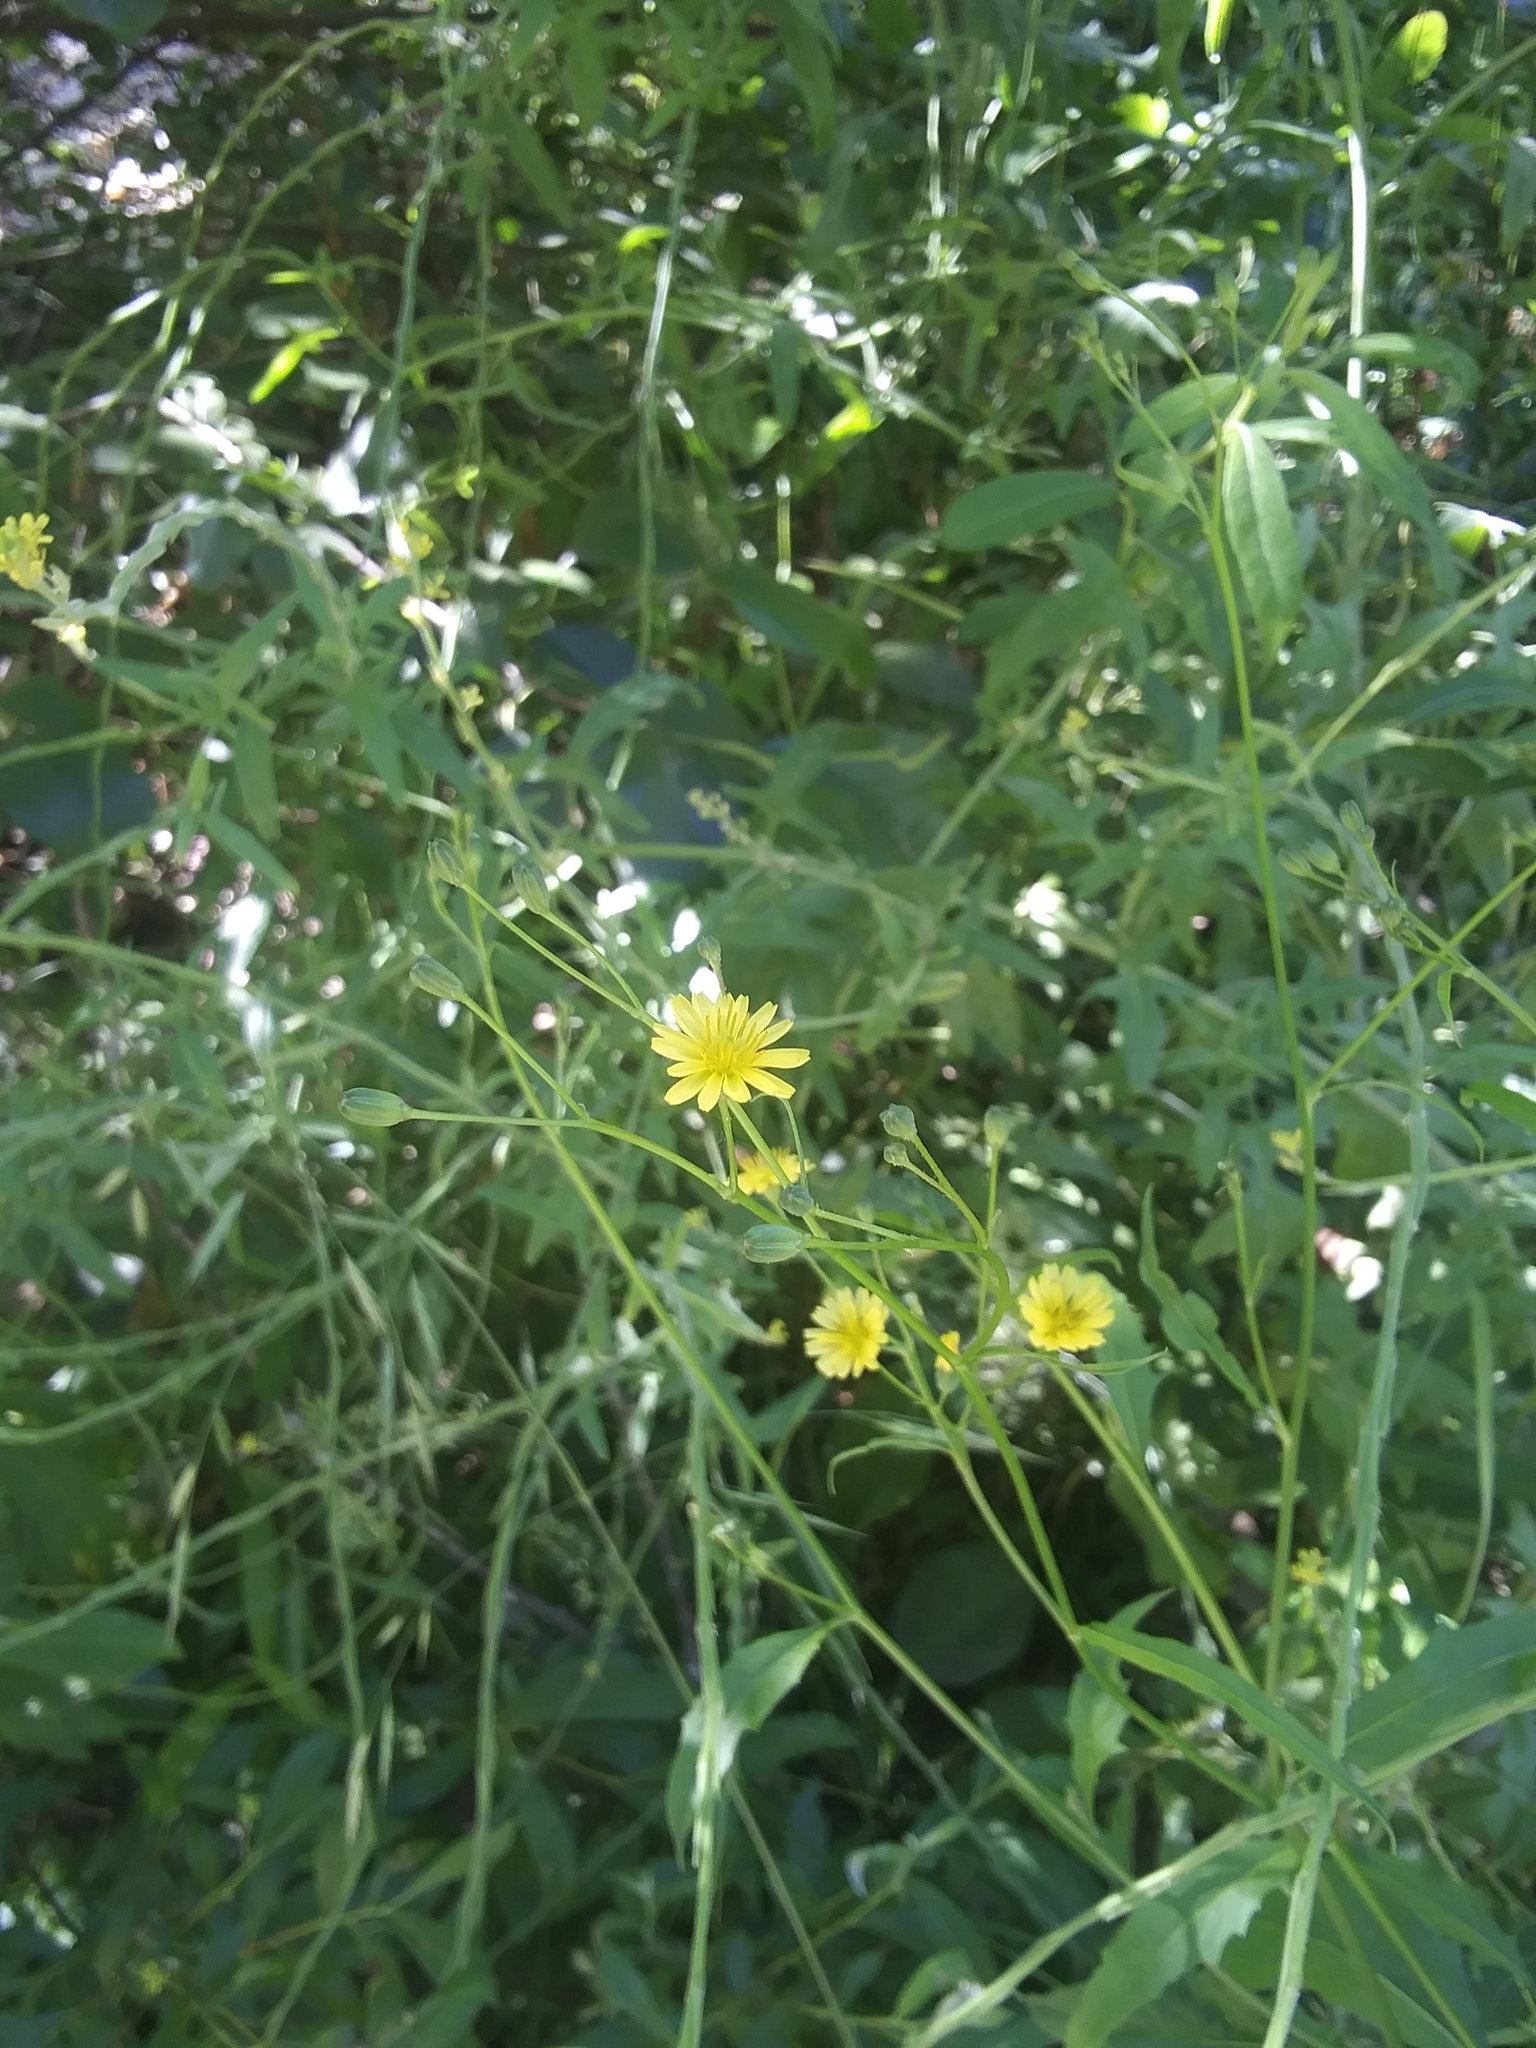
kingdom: Plantae
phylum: Tracheophyta
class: Magnoliopsida
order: Asterales
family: Asteraceae
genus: Lapsana
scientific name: Lapsana communis
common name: Nipplewort
